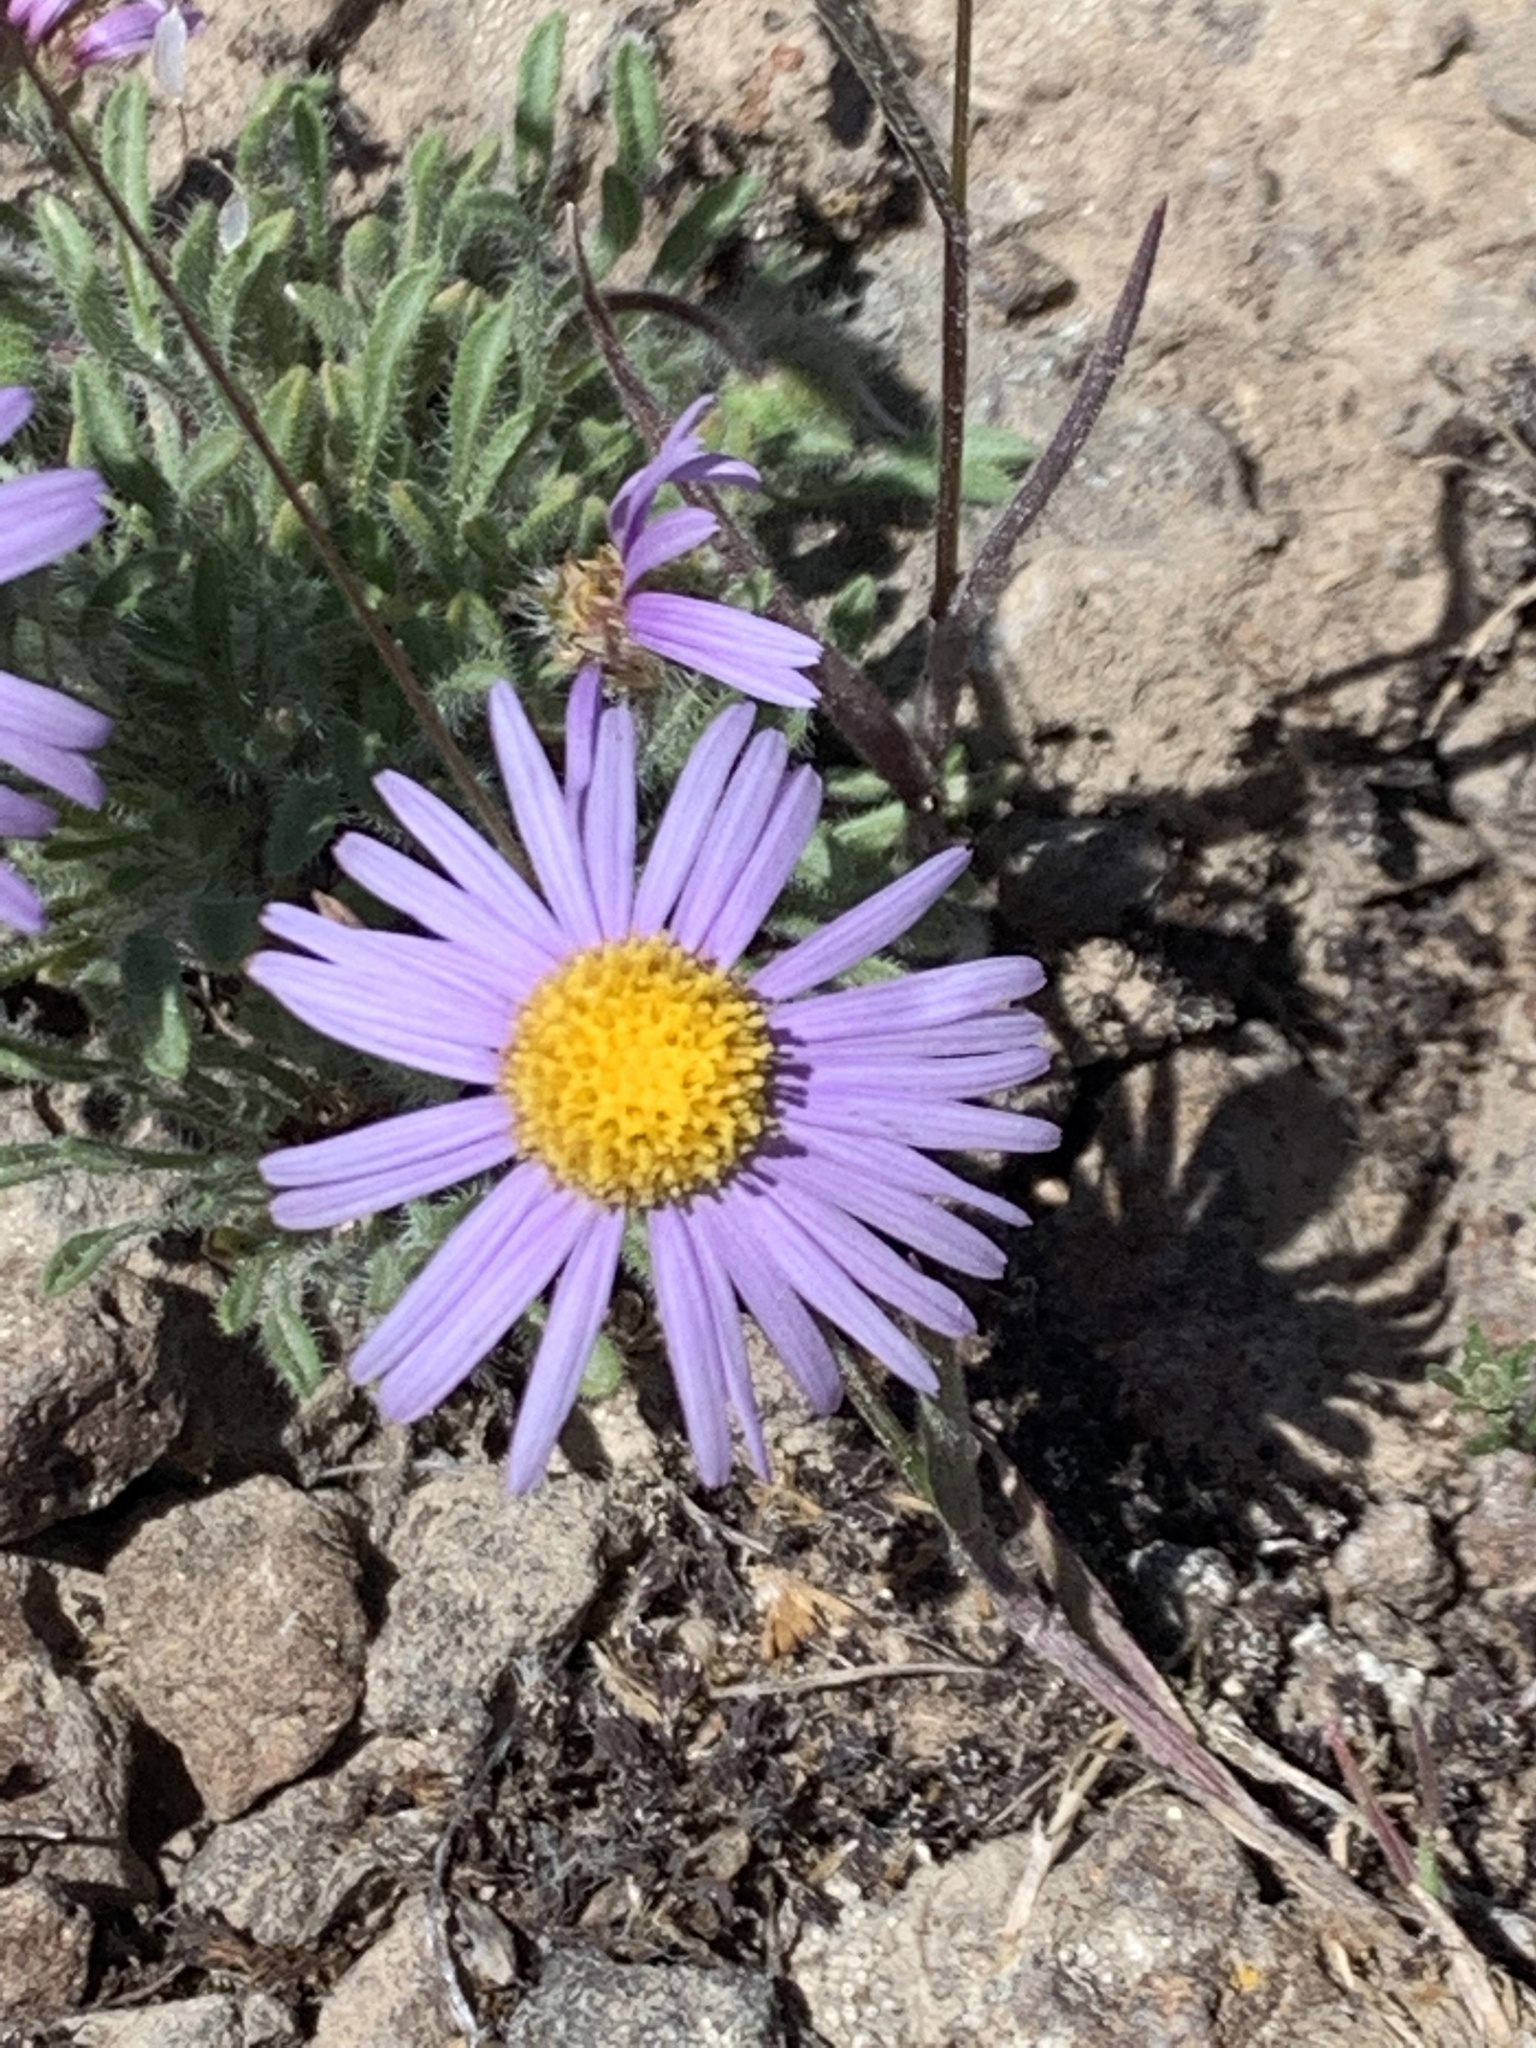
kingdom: Plantae
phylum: Tracheophyta
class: Magnoliopsida
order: Asterales
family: Asteraceae
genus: Erigeron
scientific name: Erigeron poliospermus
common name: Cushion fleabane
